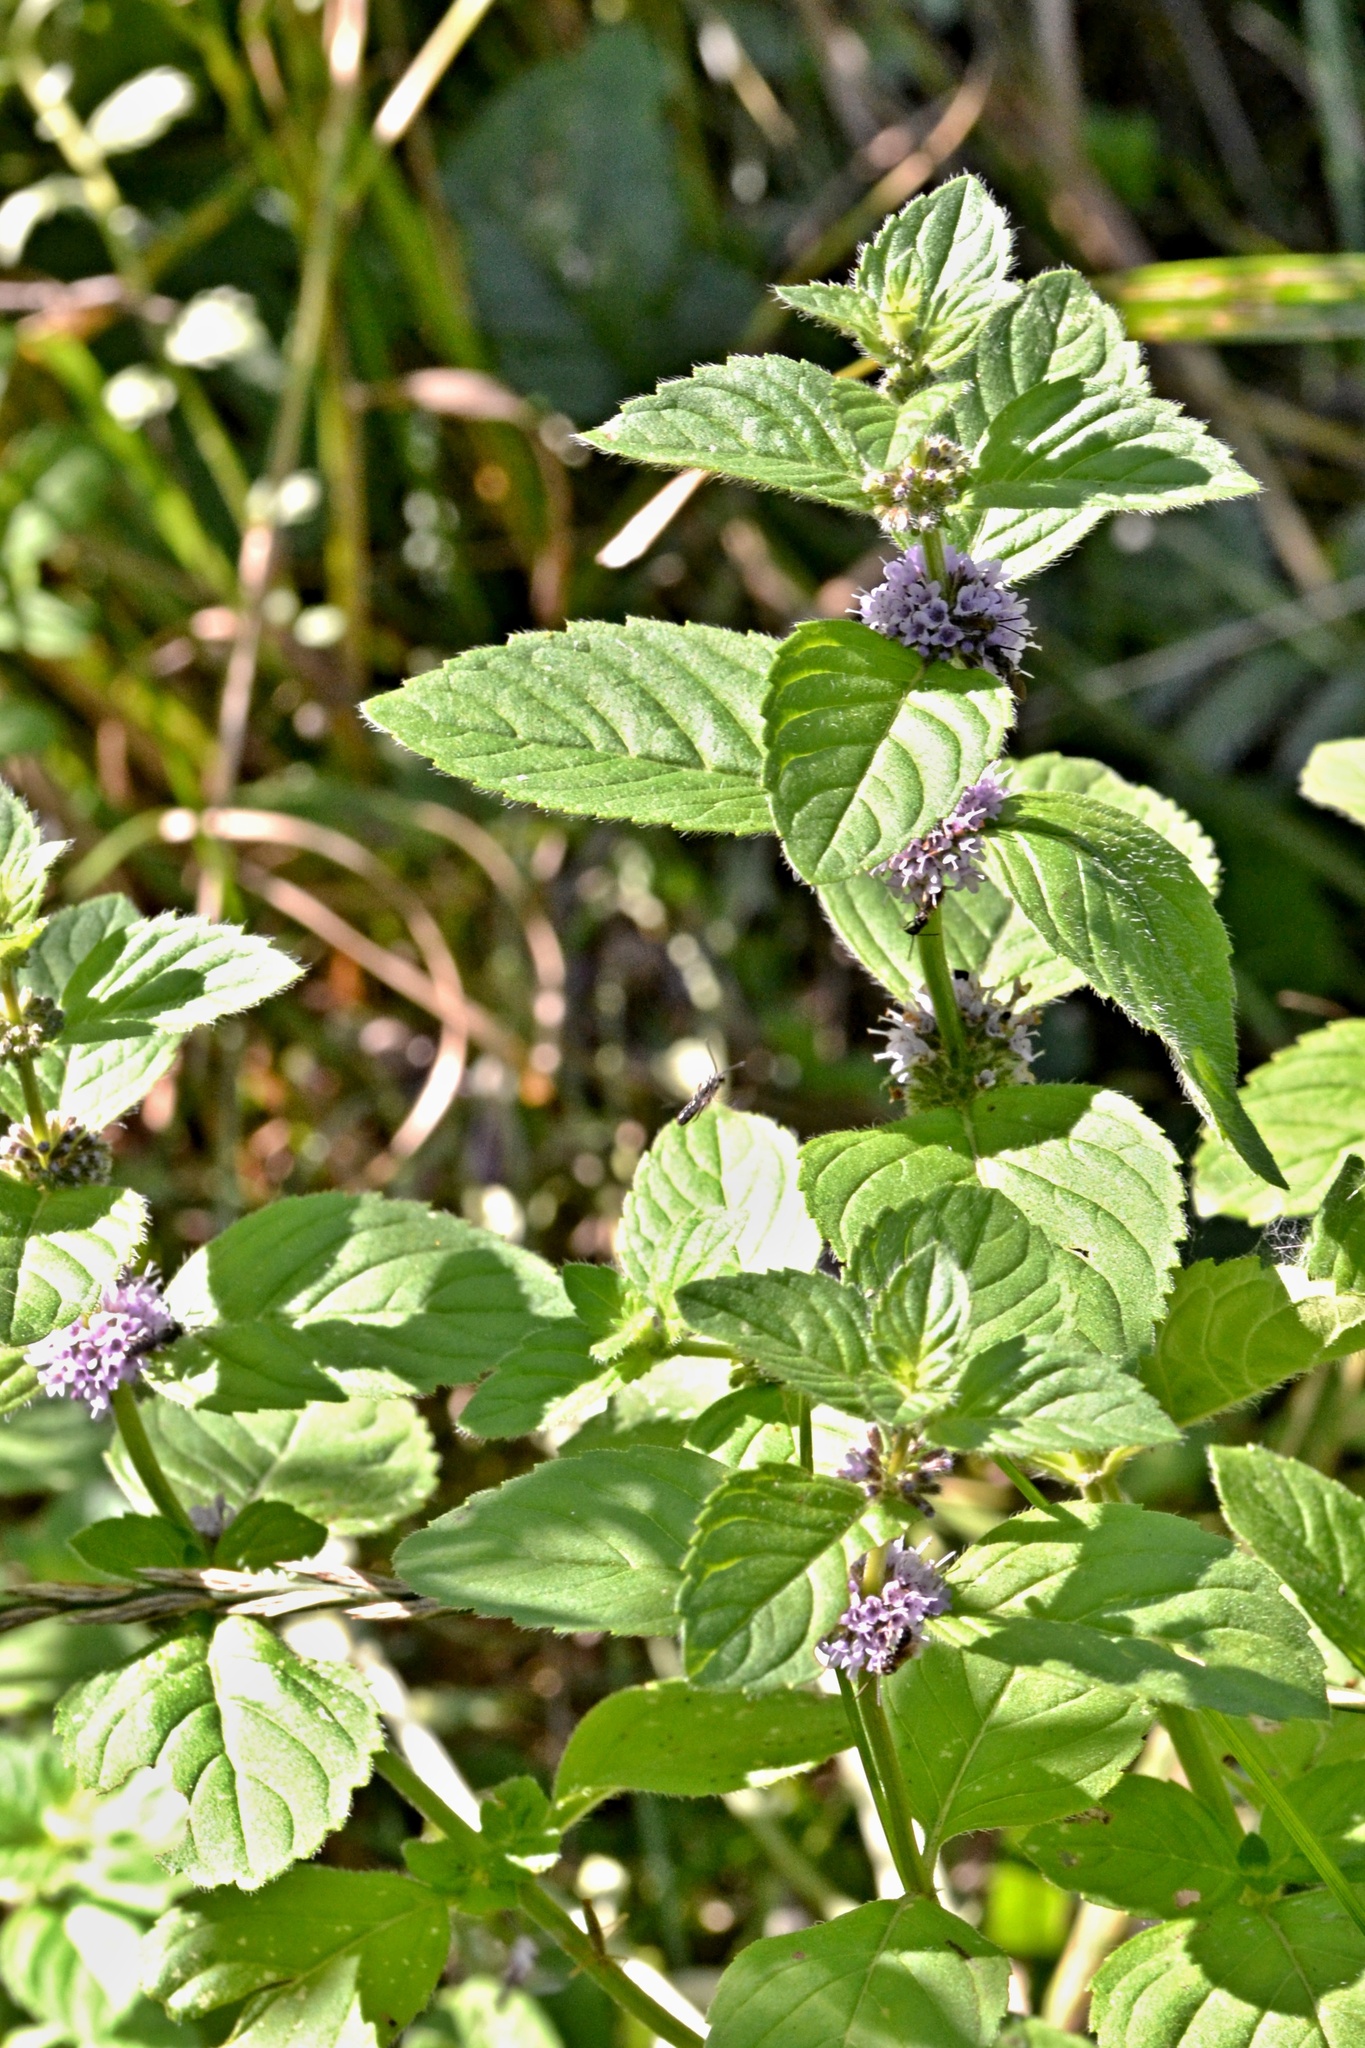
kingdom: Plantae
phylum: Tracheophyta
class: Magnoliopsida
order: Lamiales
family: Lamiaceae
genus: Mentha
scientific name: Mentha arvensis
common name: Corn mint
